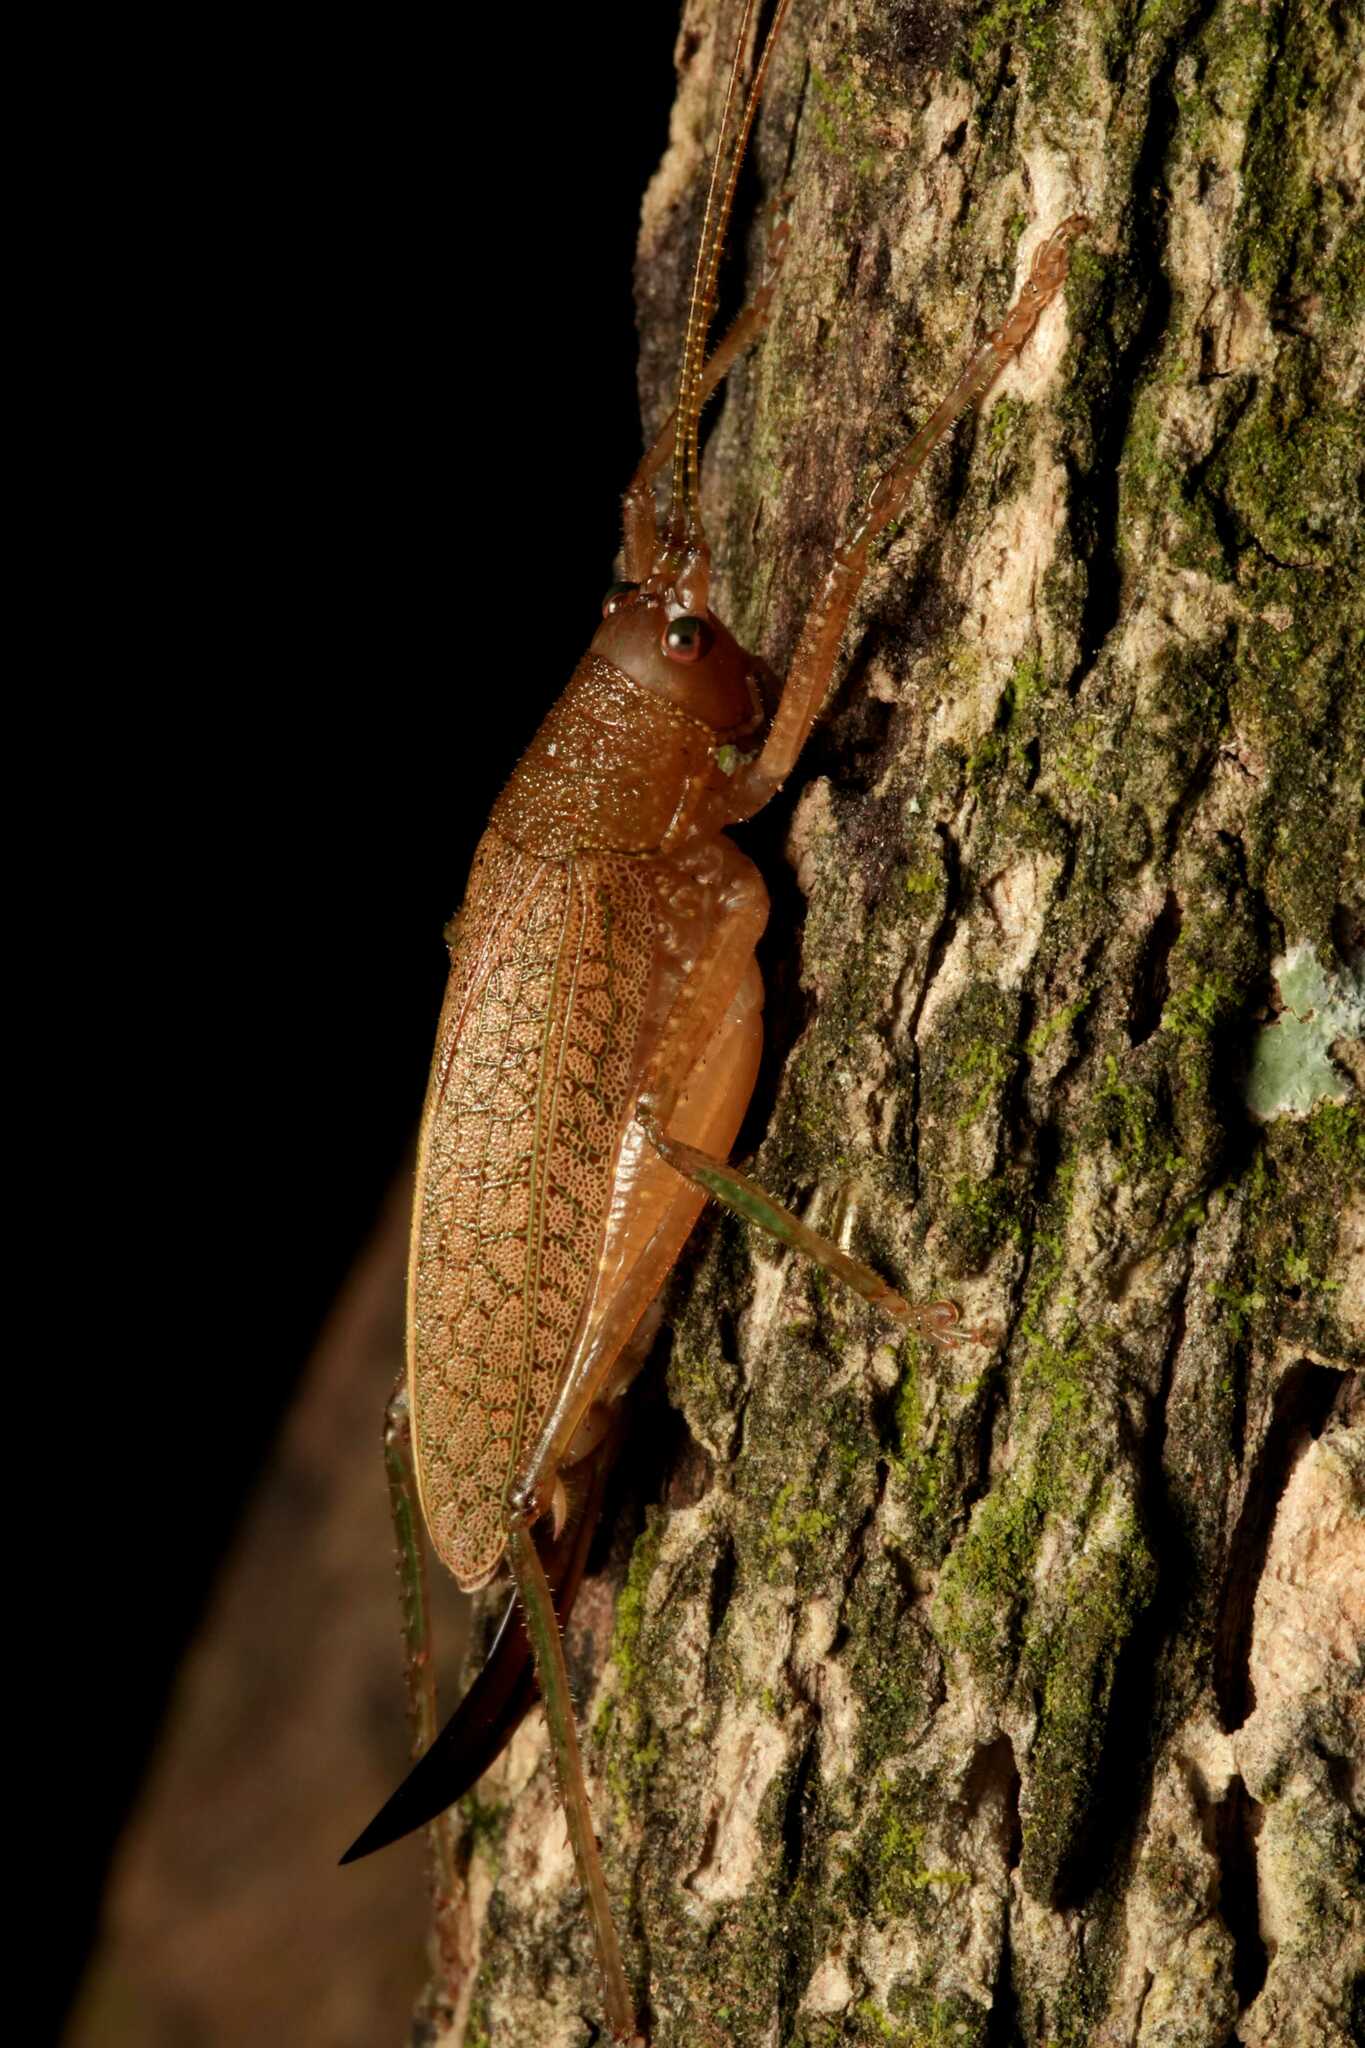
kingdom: Animalia
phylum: Arthropoda
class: Insecta
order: Orthoptera
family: Tettigoniidae
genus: Thamnobates
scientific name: Thamnobates subfalcata
